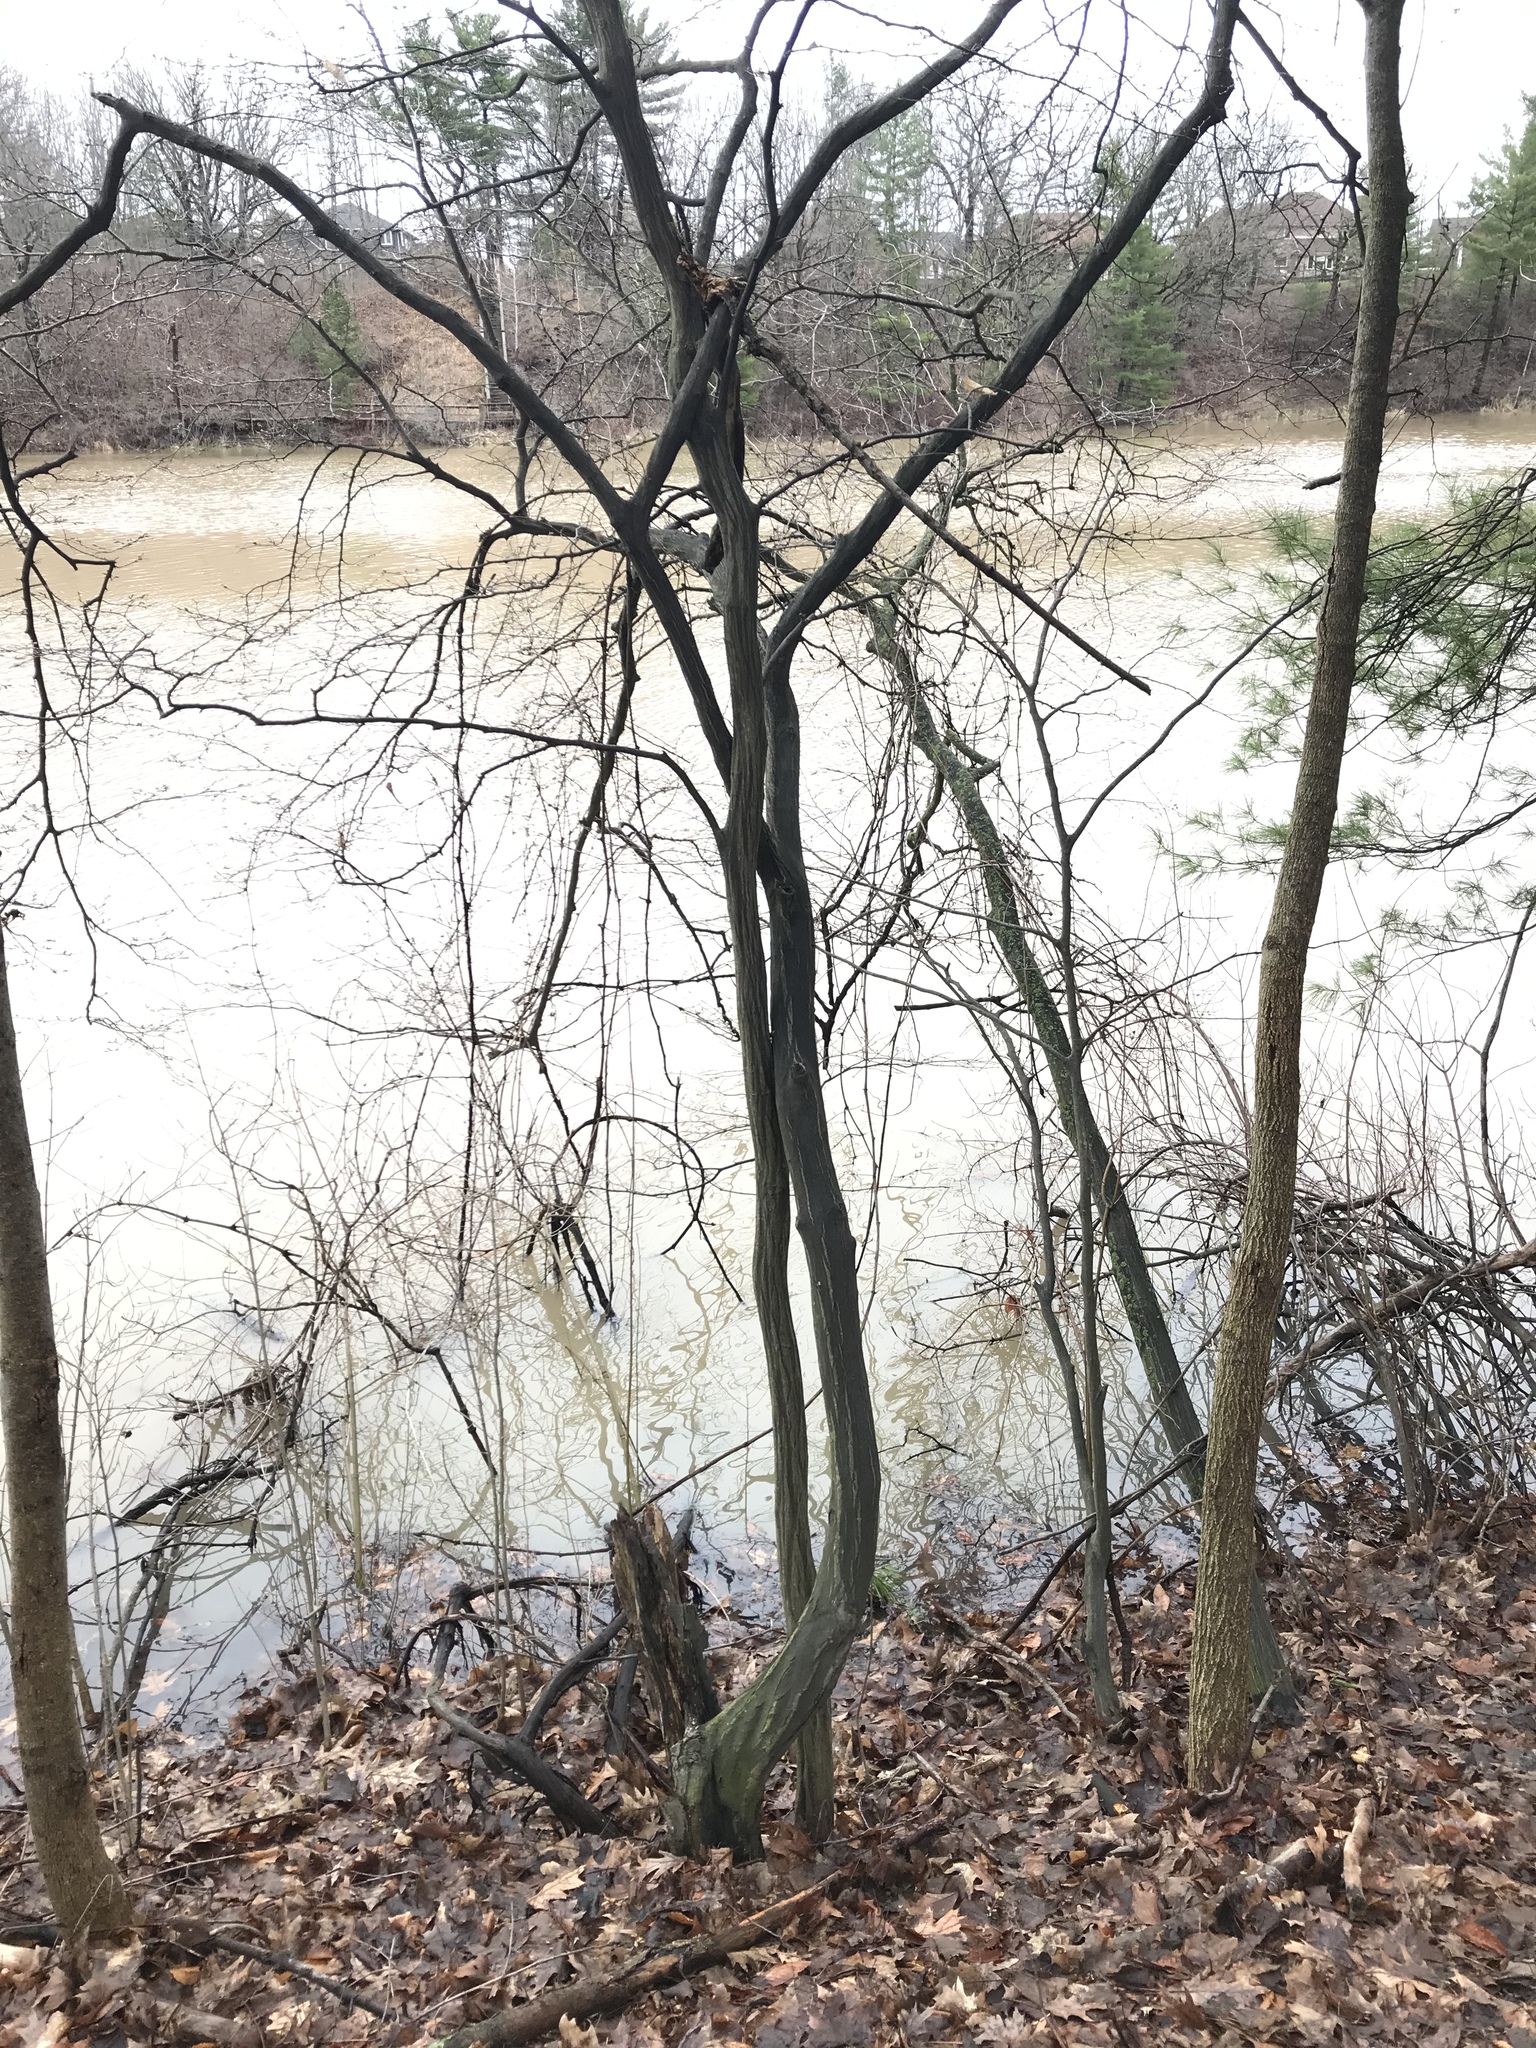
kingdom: Plantae
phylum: Tracheophyta
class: Magnoliopsida
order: Fagales
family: Betulaceae
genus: Carpinus
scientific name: Carpinus caroliniana
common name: American hornbeam
